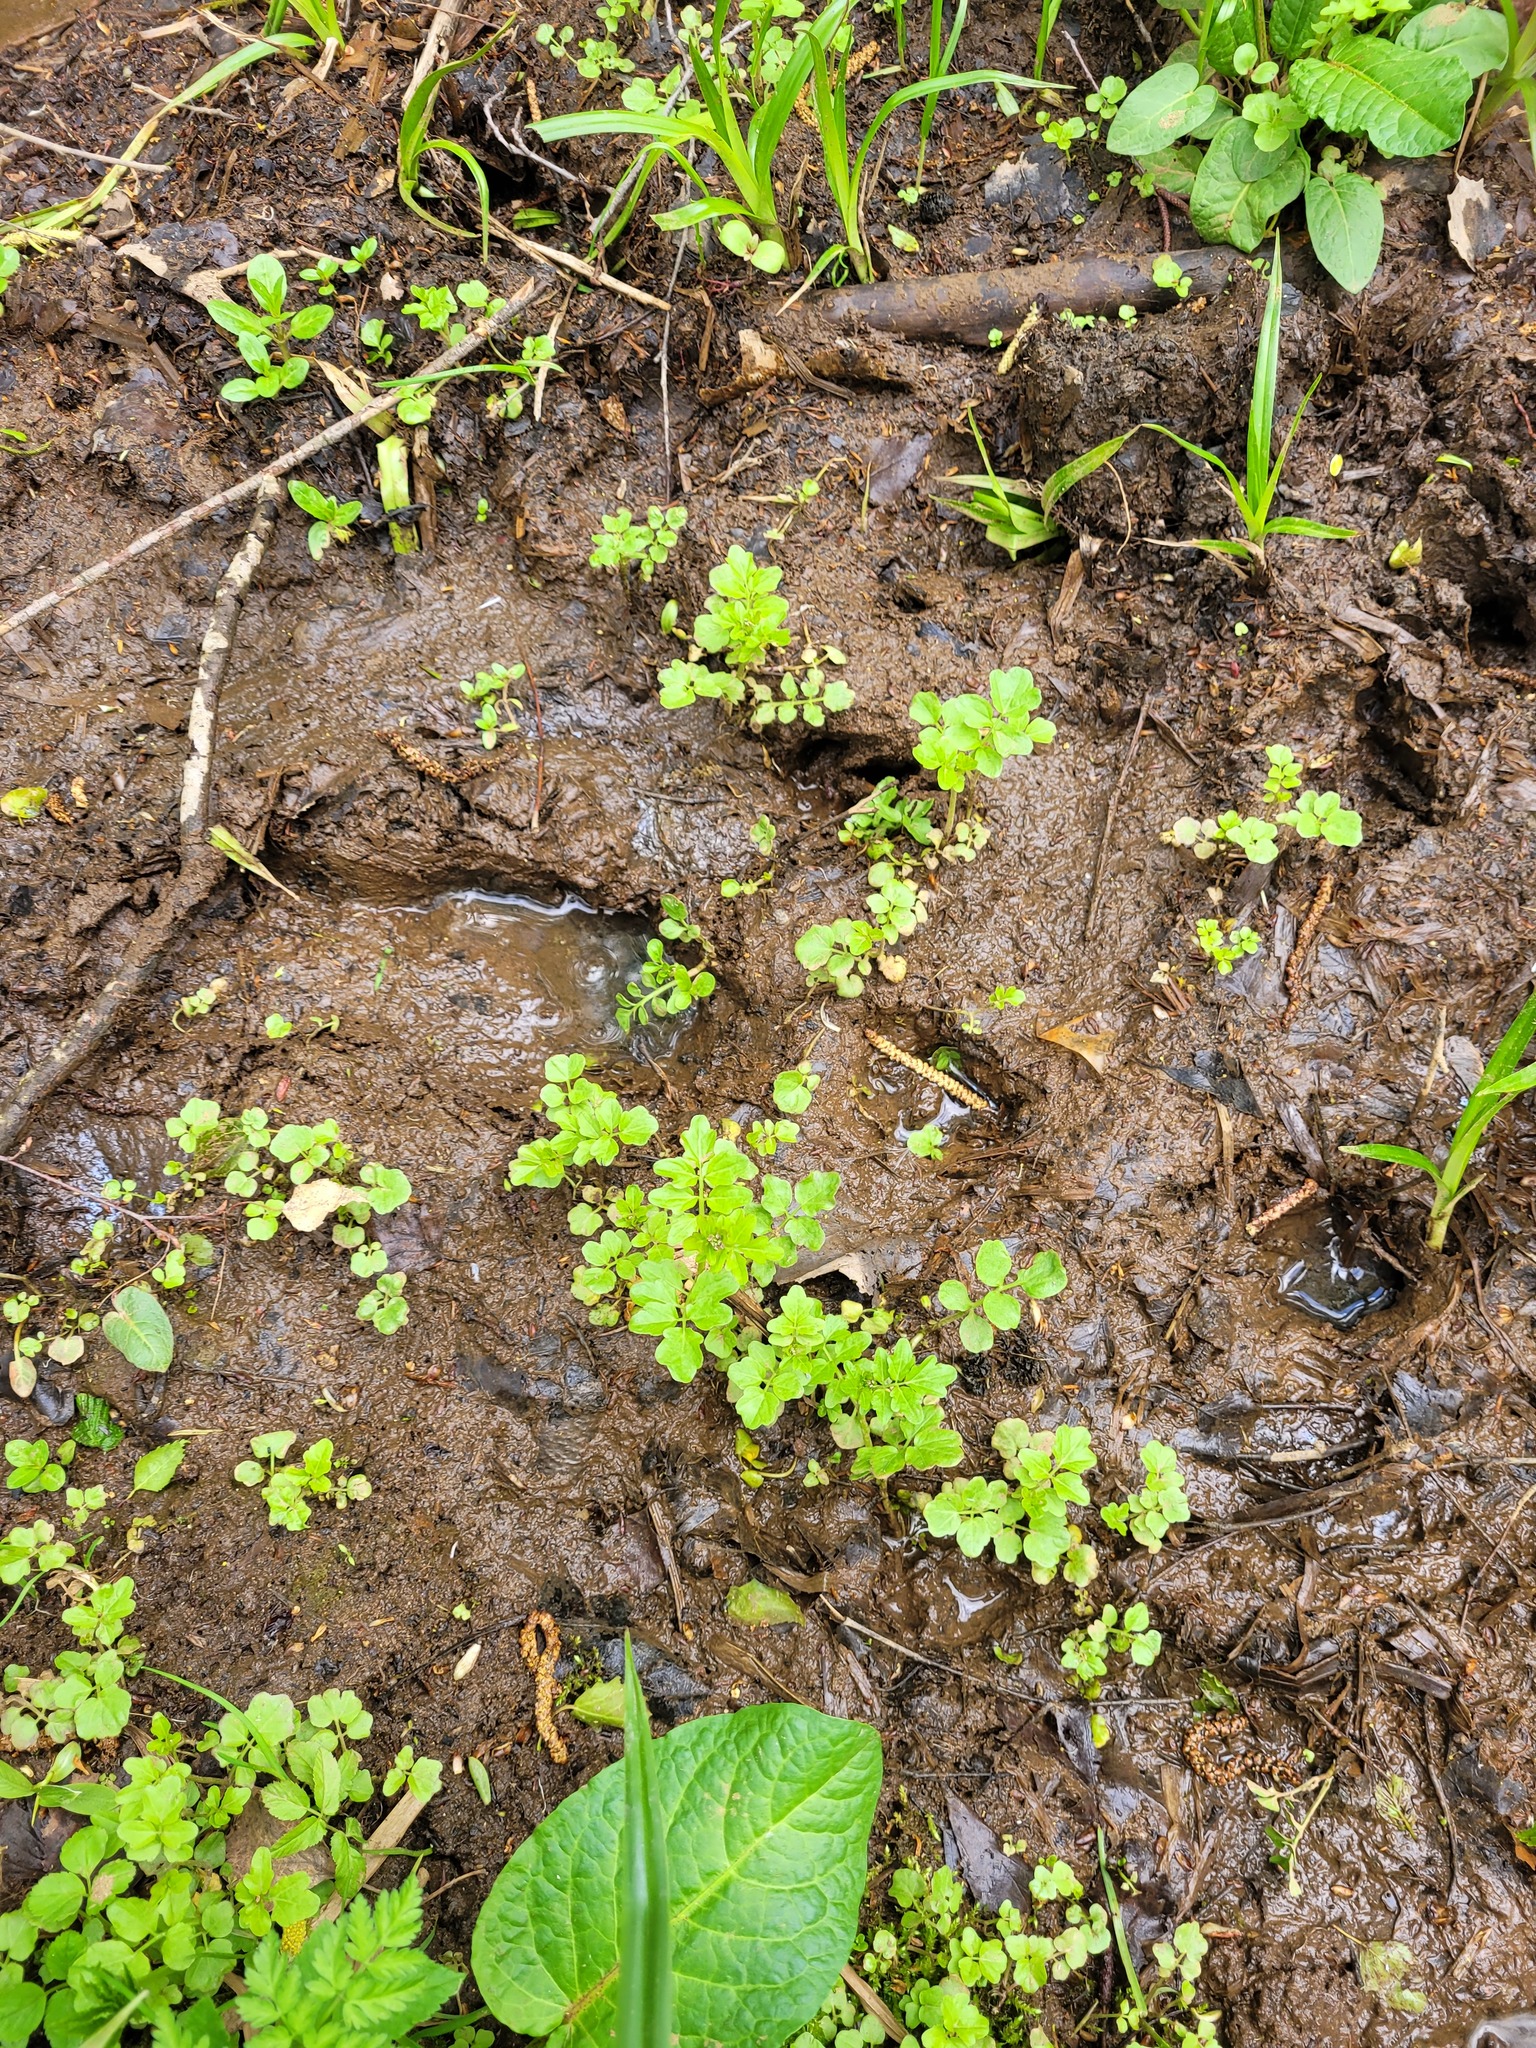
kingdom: Plantae
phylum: Tracheophyta
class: Magnoliopsida
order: Brassicales
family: Brassicaceae
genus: Cardamine
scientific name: Cardamine amara
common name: Large bitter-cress
